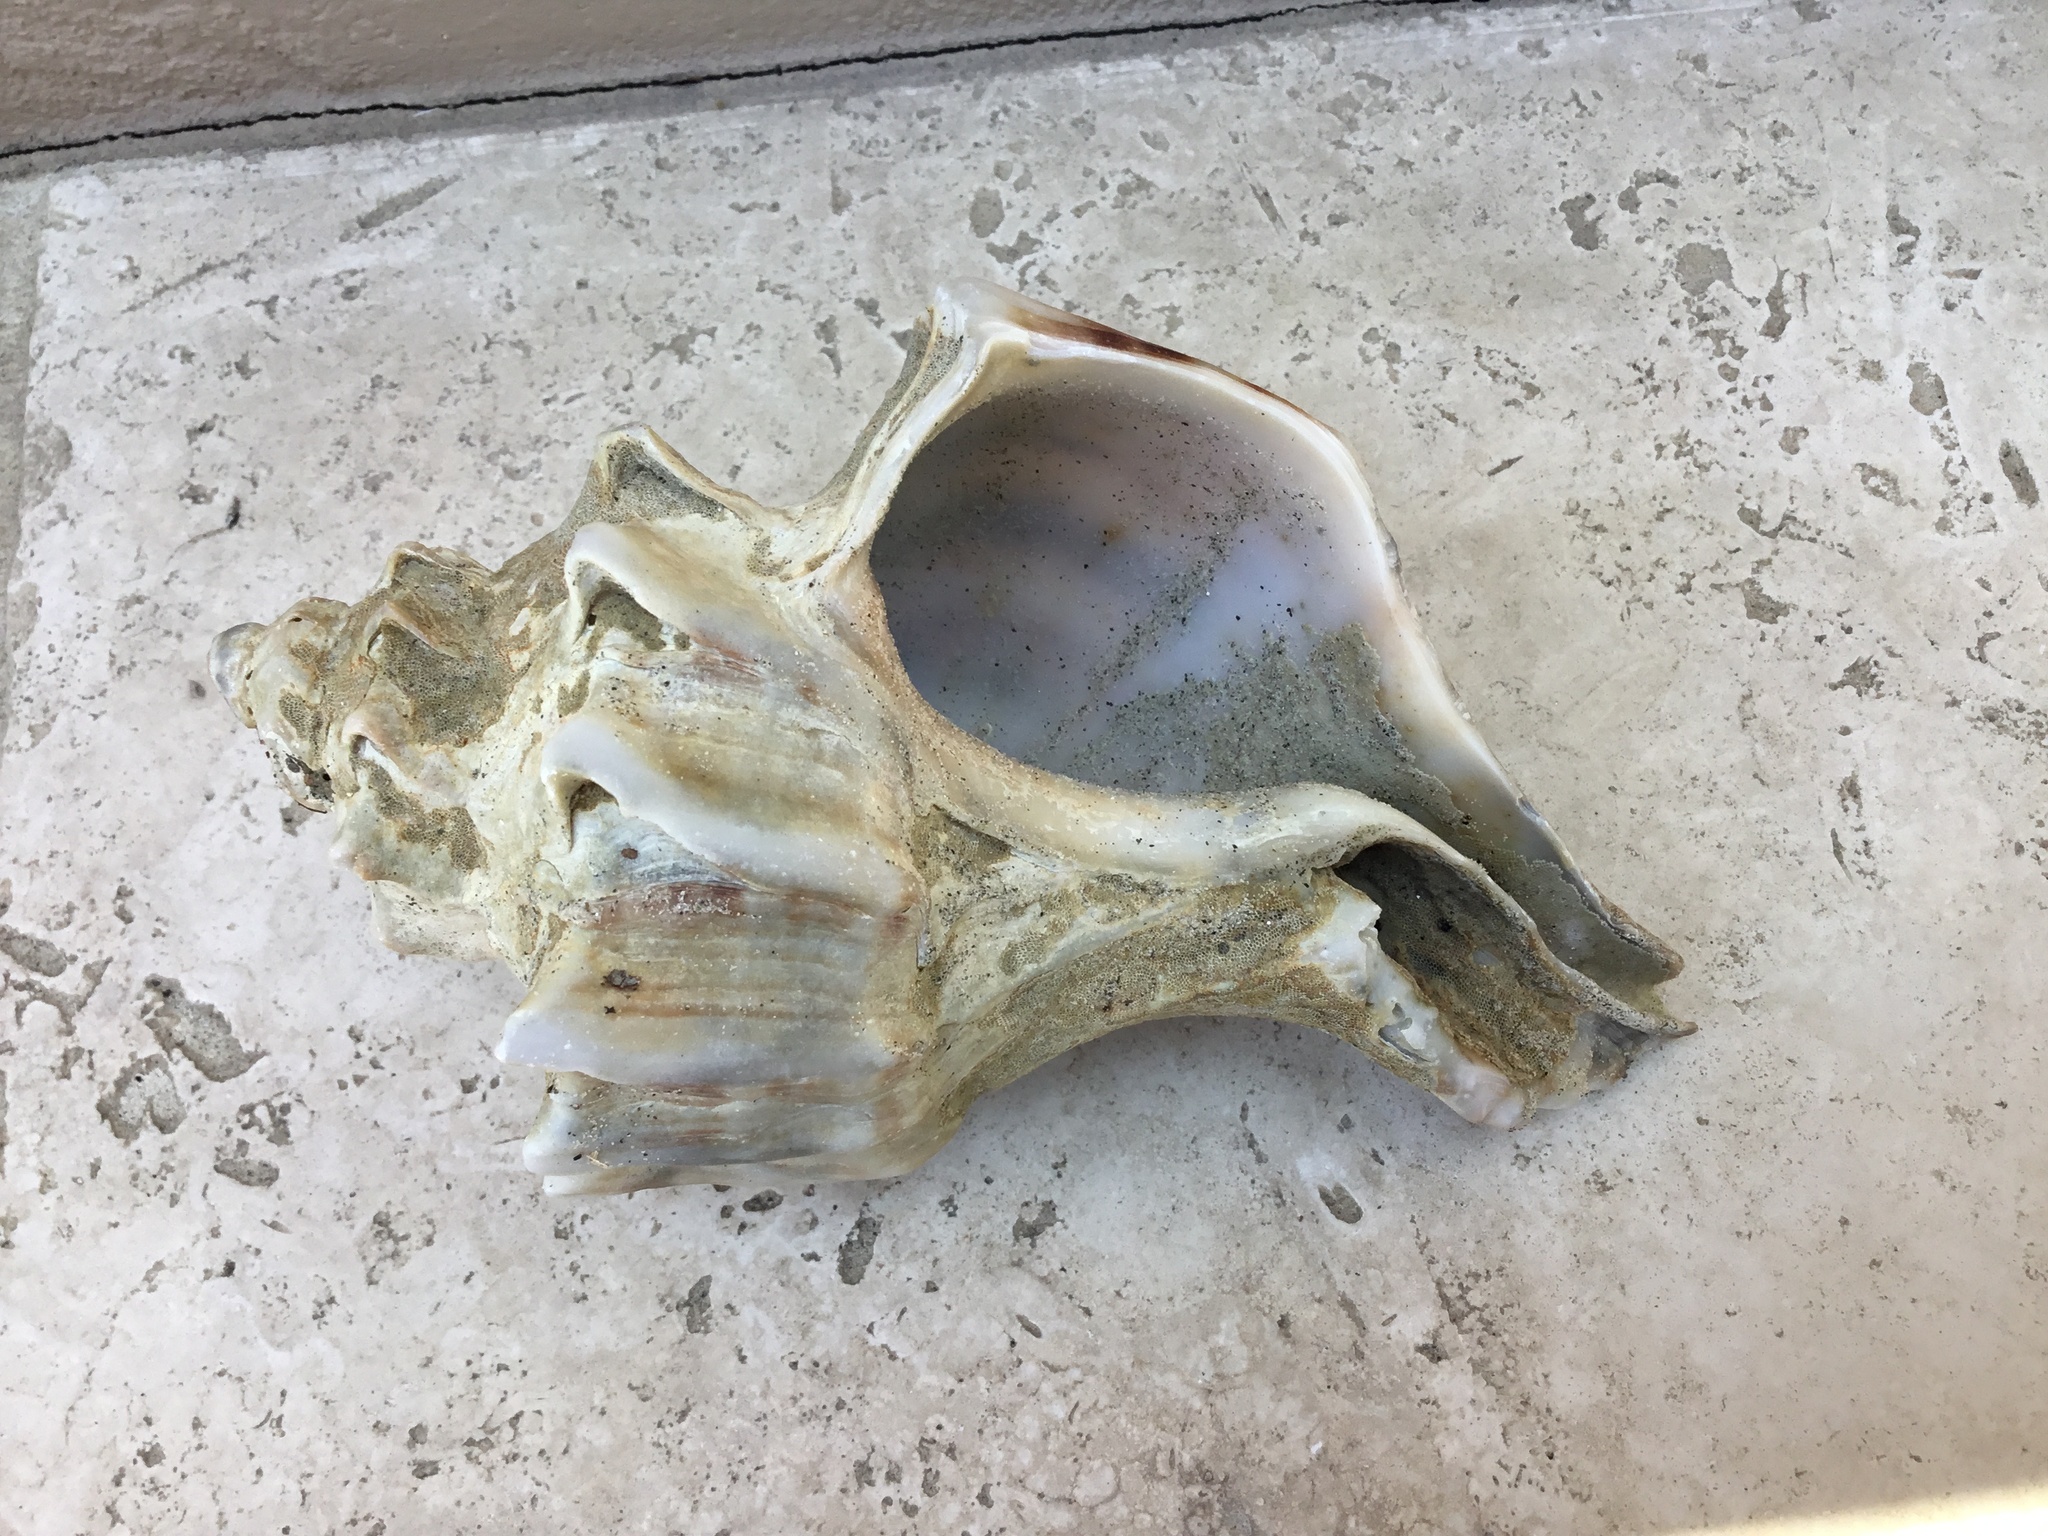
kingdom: Animalia
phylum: Mollusca
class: Gastropoda
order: Neogastropoda
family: Muricidae
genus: Forreria
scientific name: Forreria belcheri
